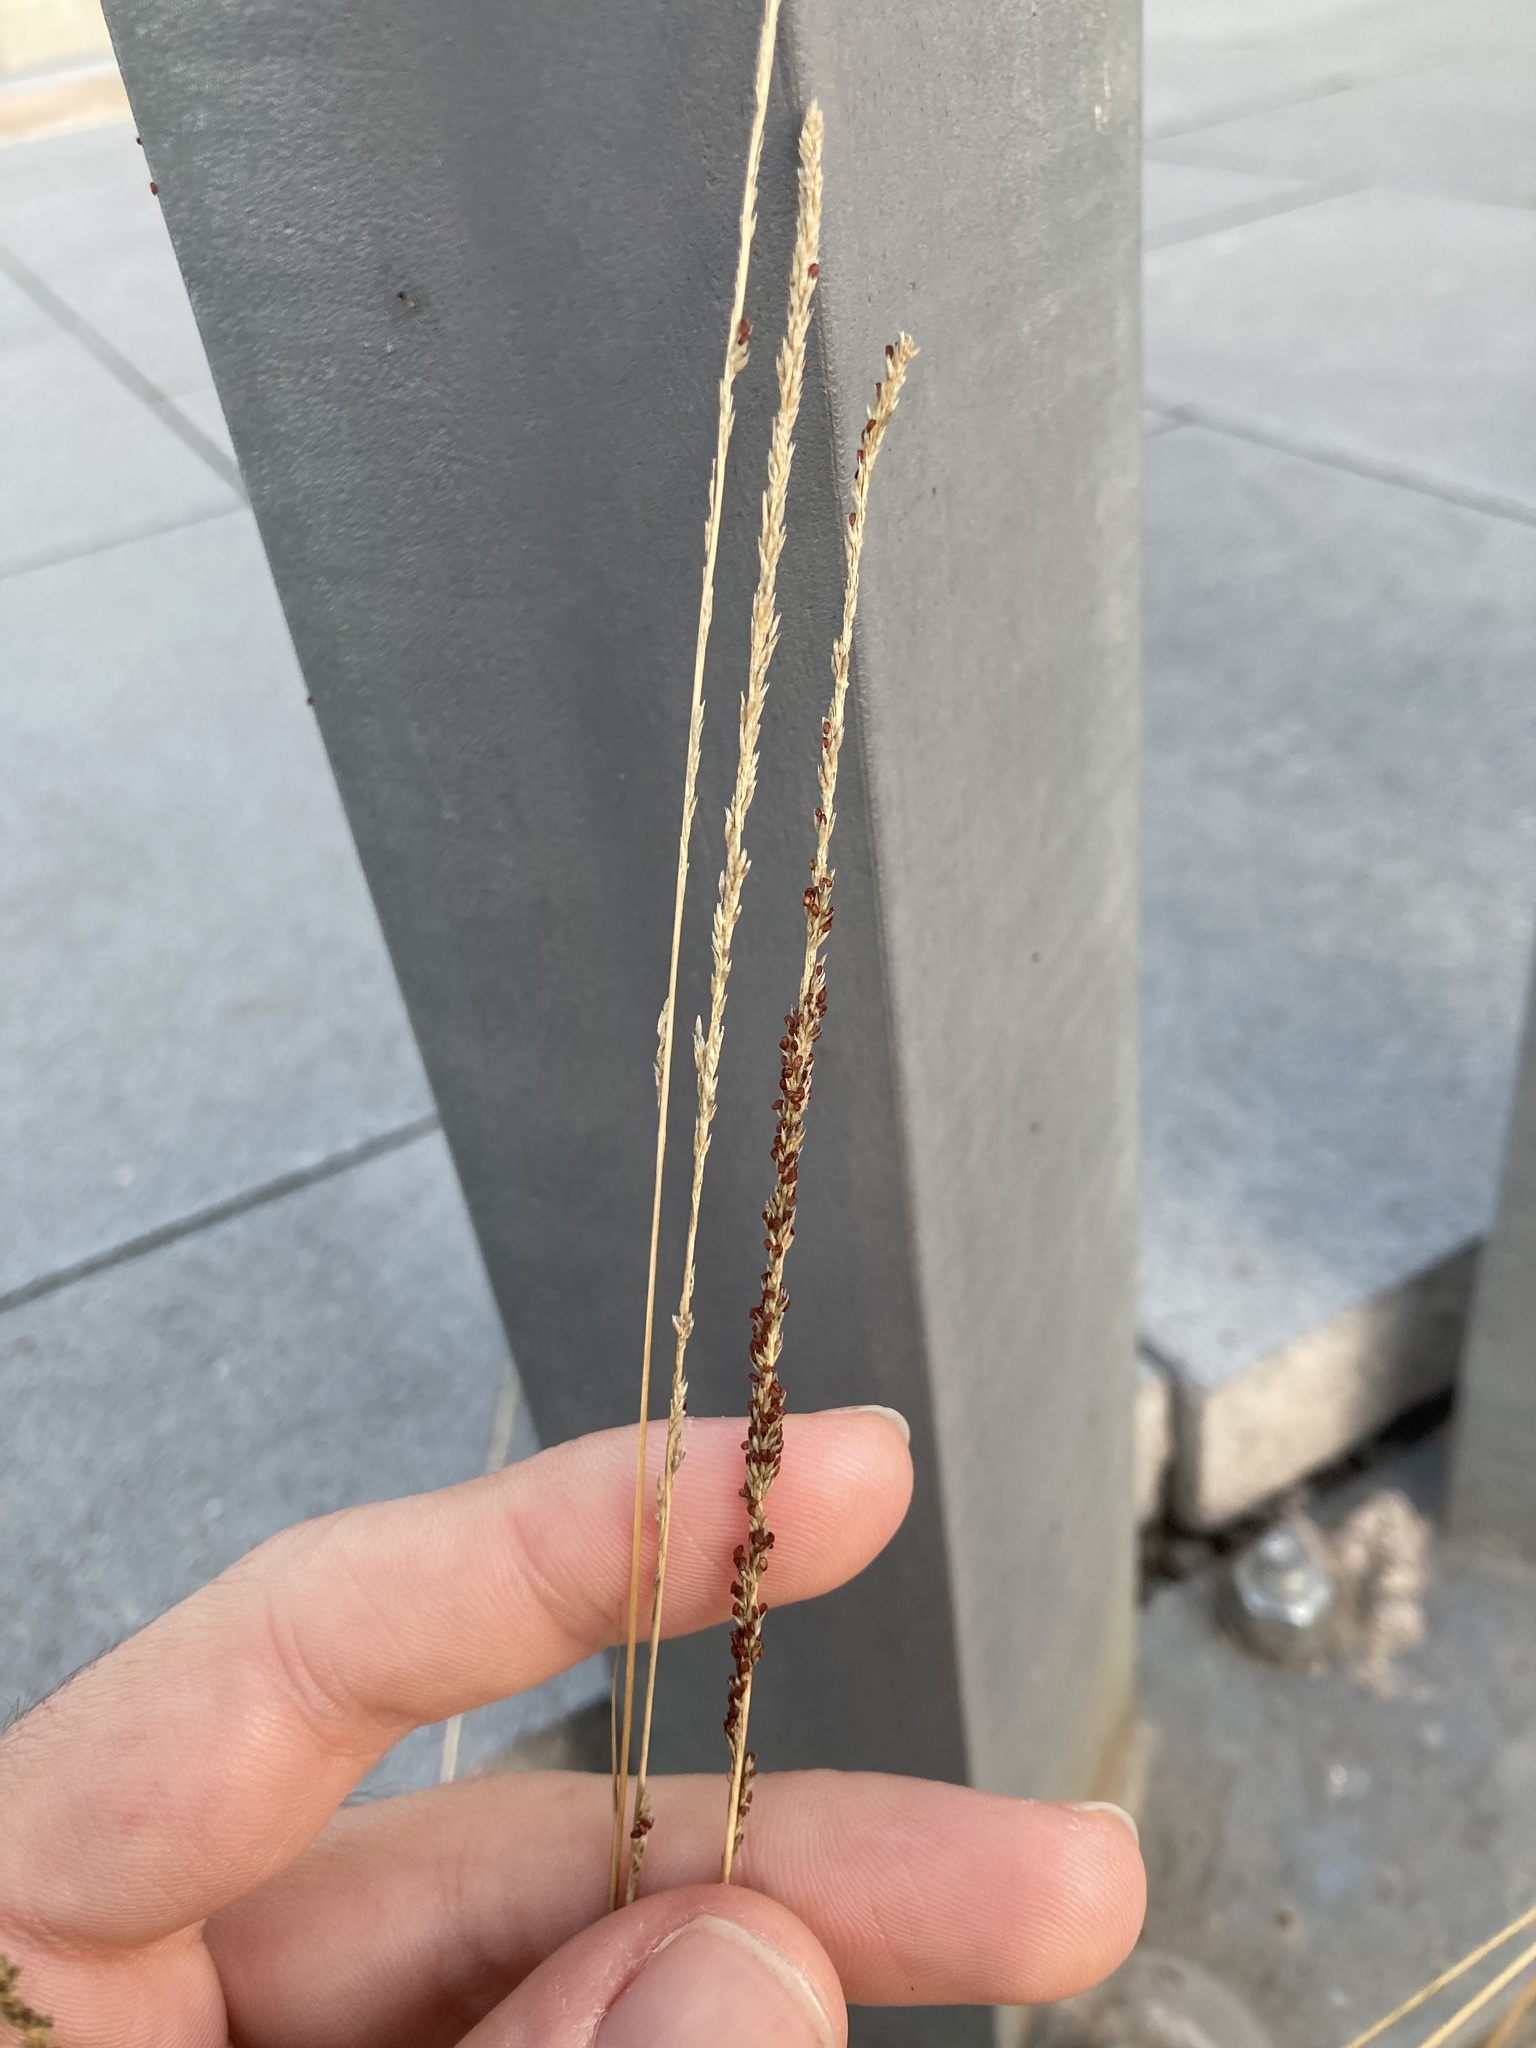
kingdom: Plantae
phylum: Tracheophyta
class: Liliopsida
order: Poales
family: Poaceae
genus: Sporobolus
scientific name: Sporobolus indicus
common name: Smut grass
